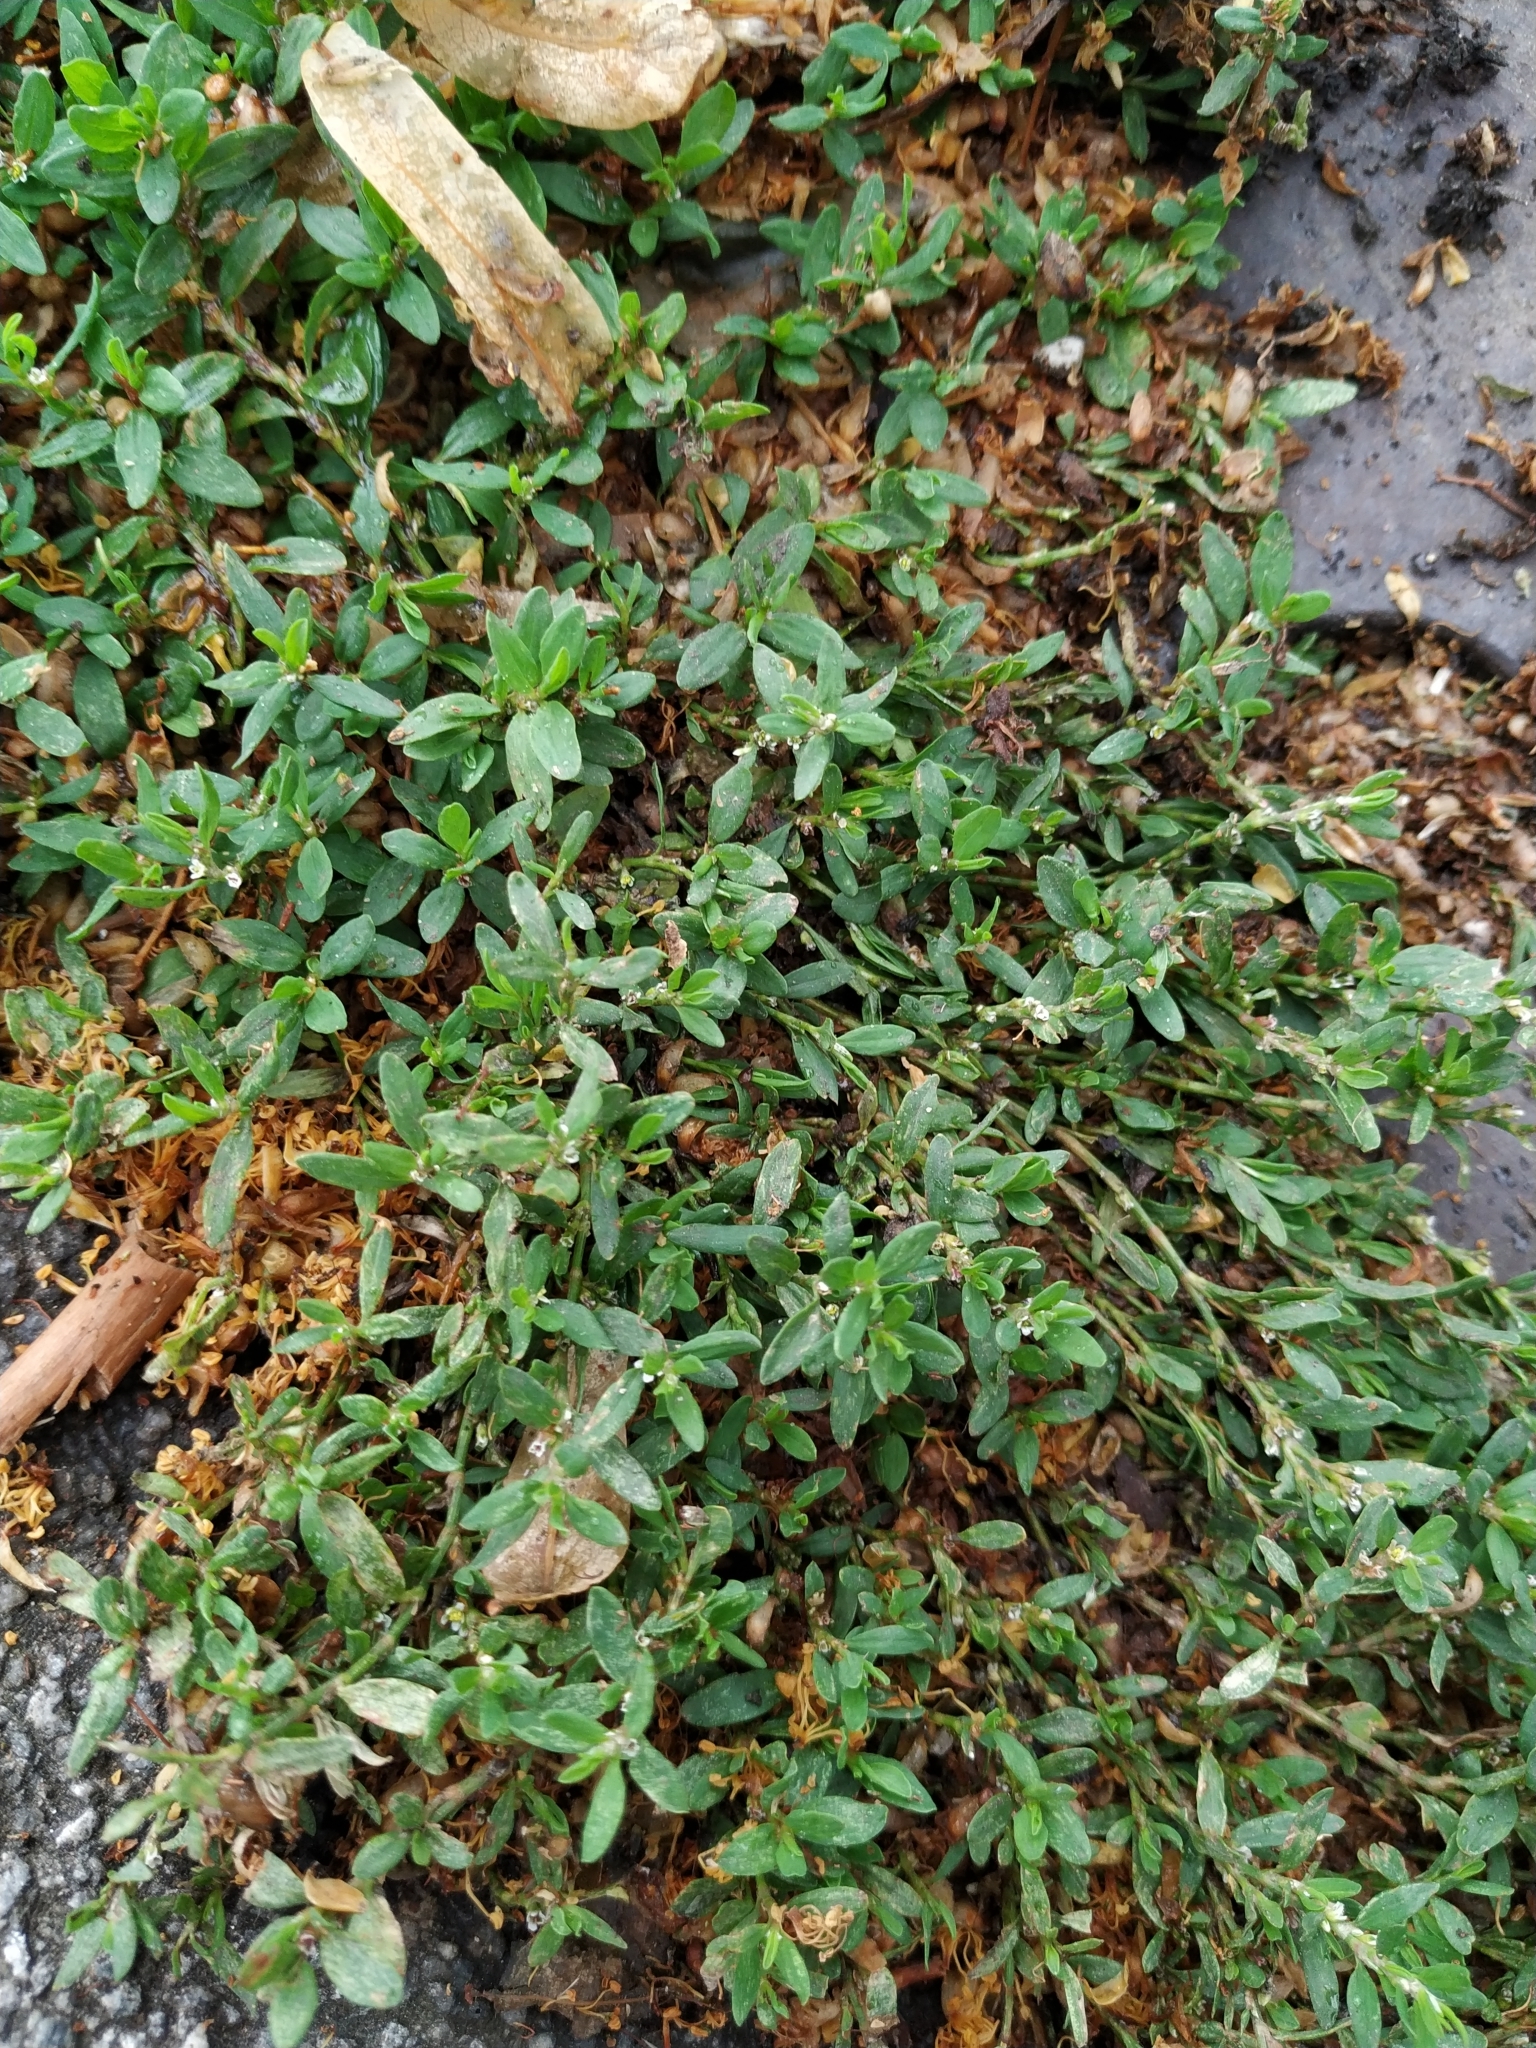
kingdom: Plantae
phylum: Tracheophyta
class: Magnoliopsida
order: Caryophyllales
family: Polygonaceae
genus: Polygonum
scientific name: Polygonum arenastrum
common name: Equal-leaved knotgrass
